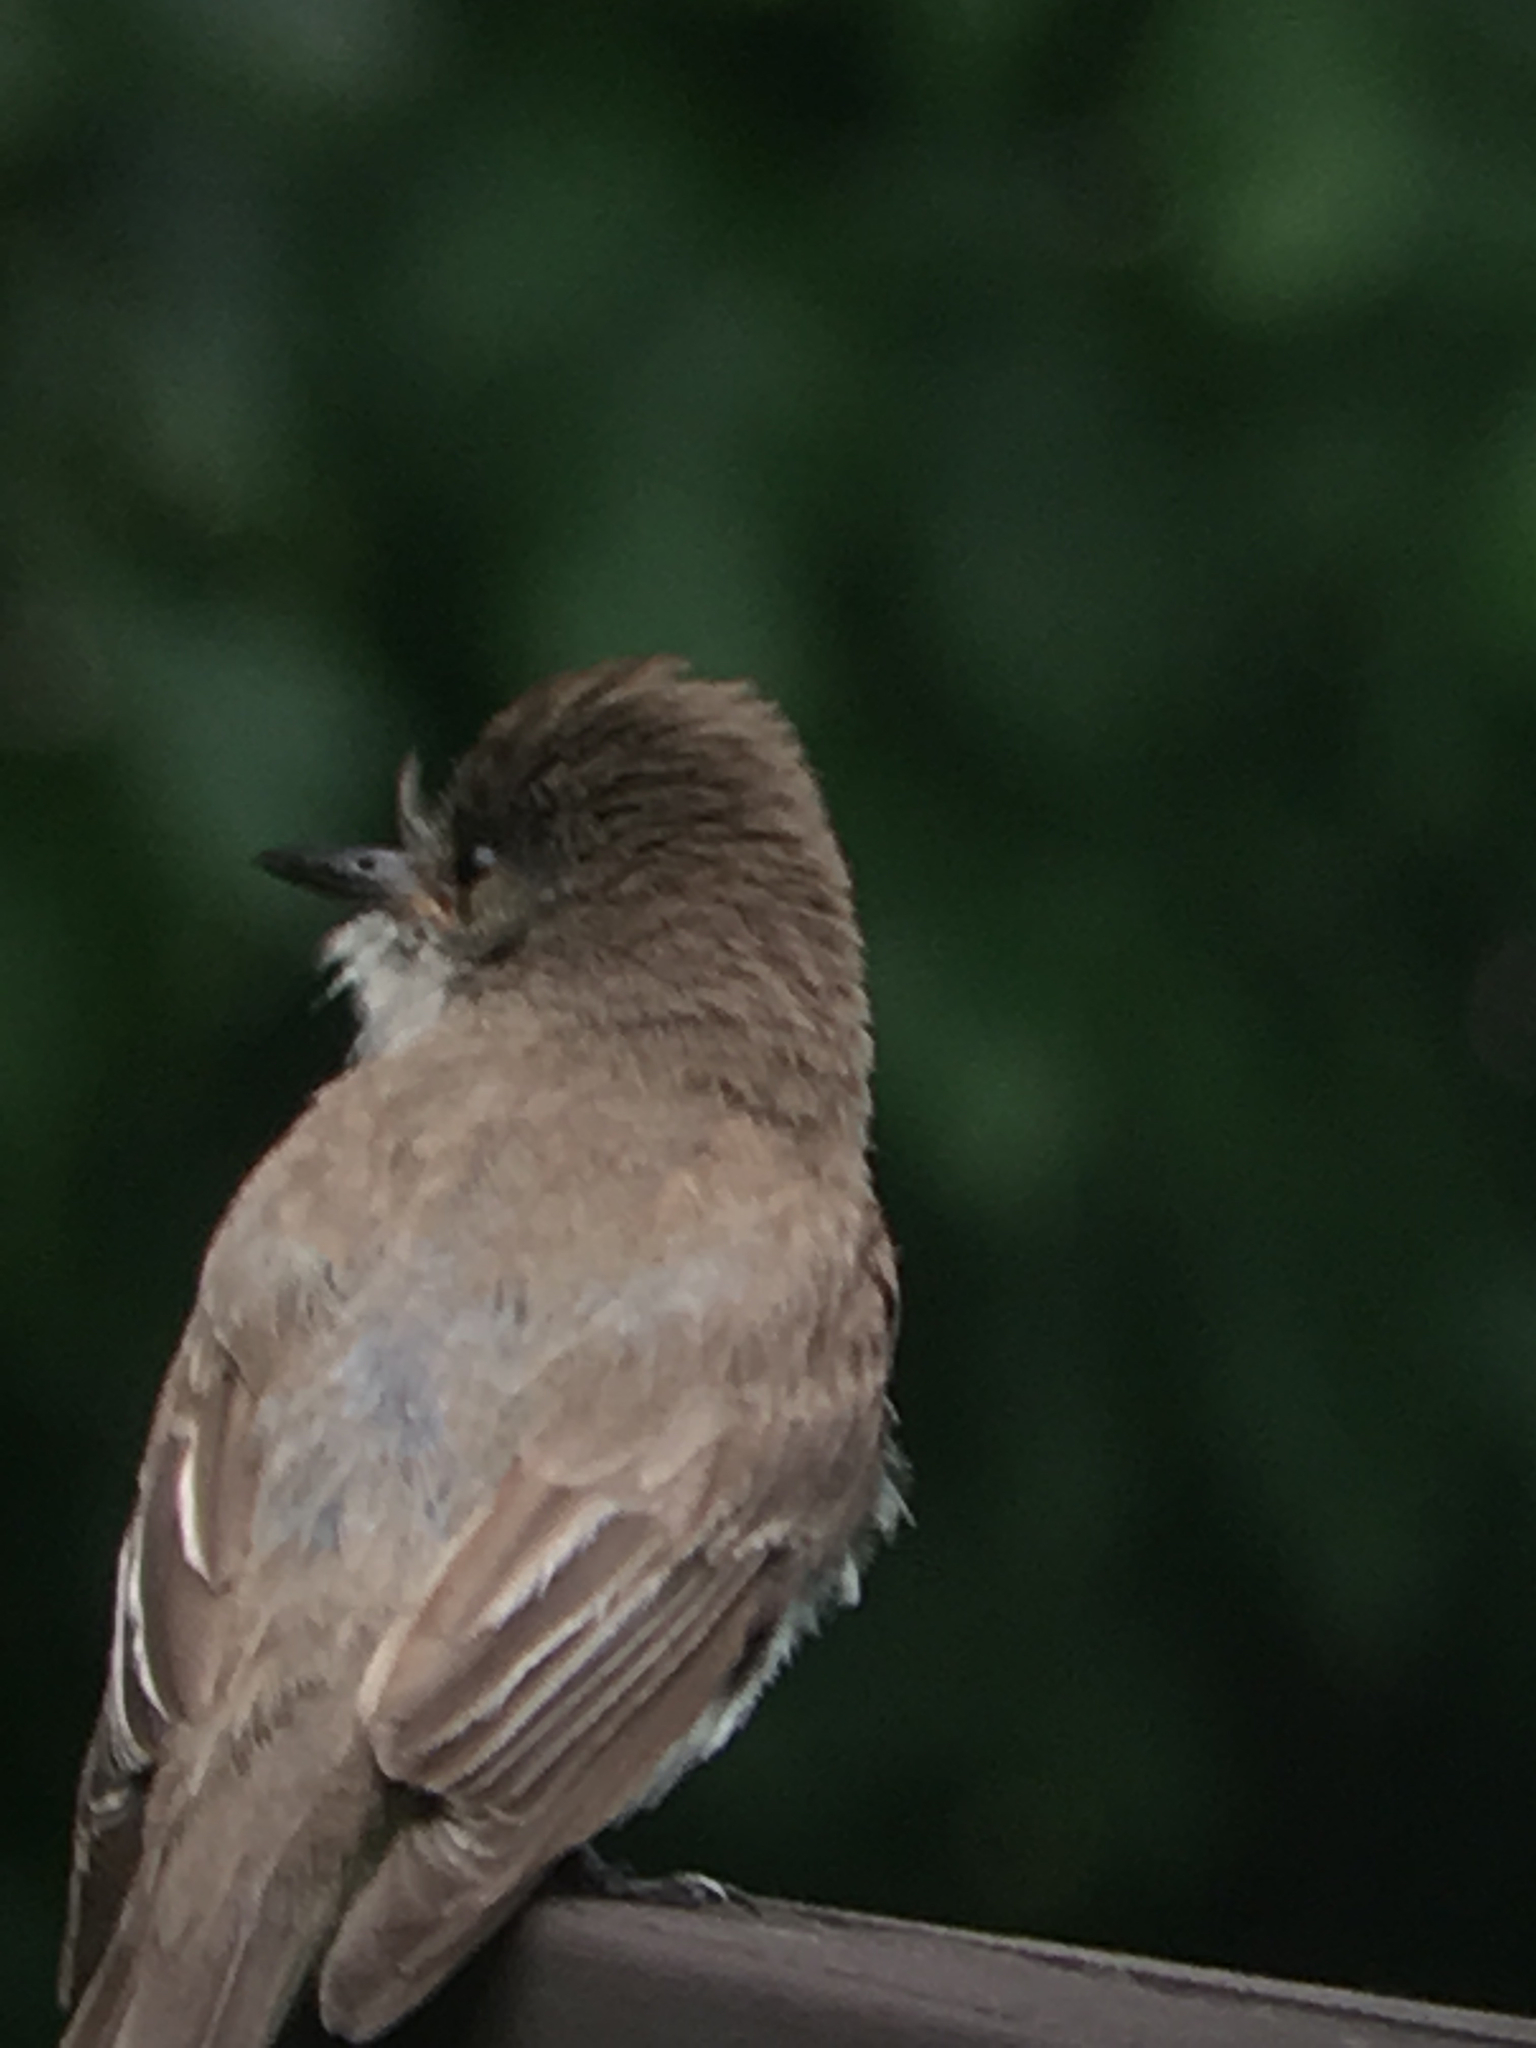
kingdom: Animalia
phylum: Chordata
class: Aves
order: Passeriformes
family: Tyrannidae
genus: Sayornis
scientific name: Sayornis phoebe
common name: Eastern phoebe
